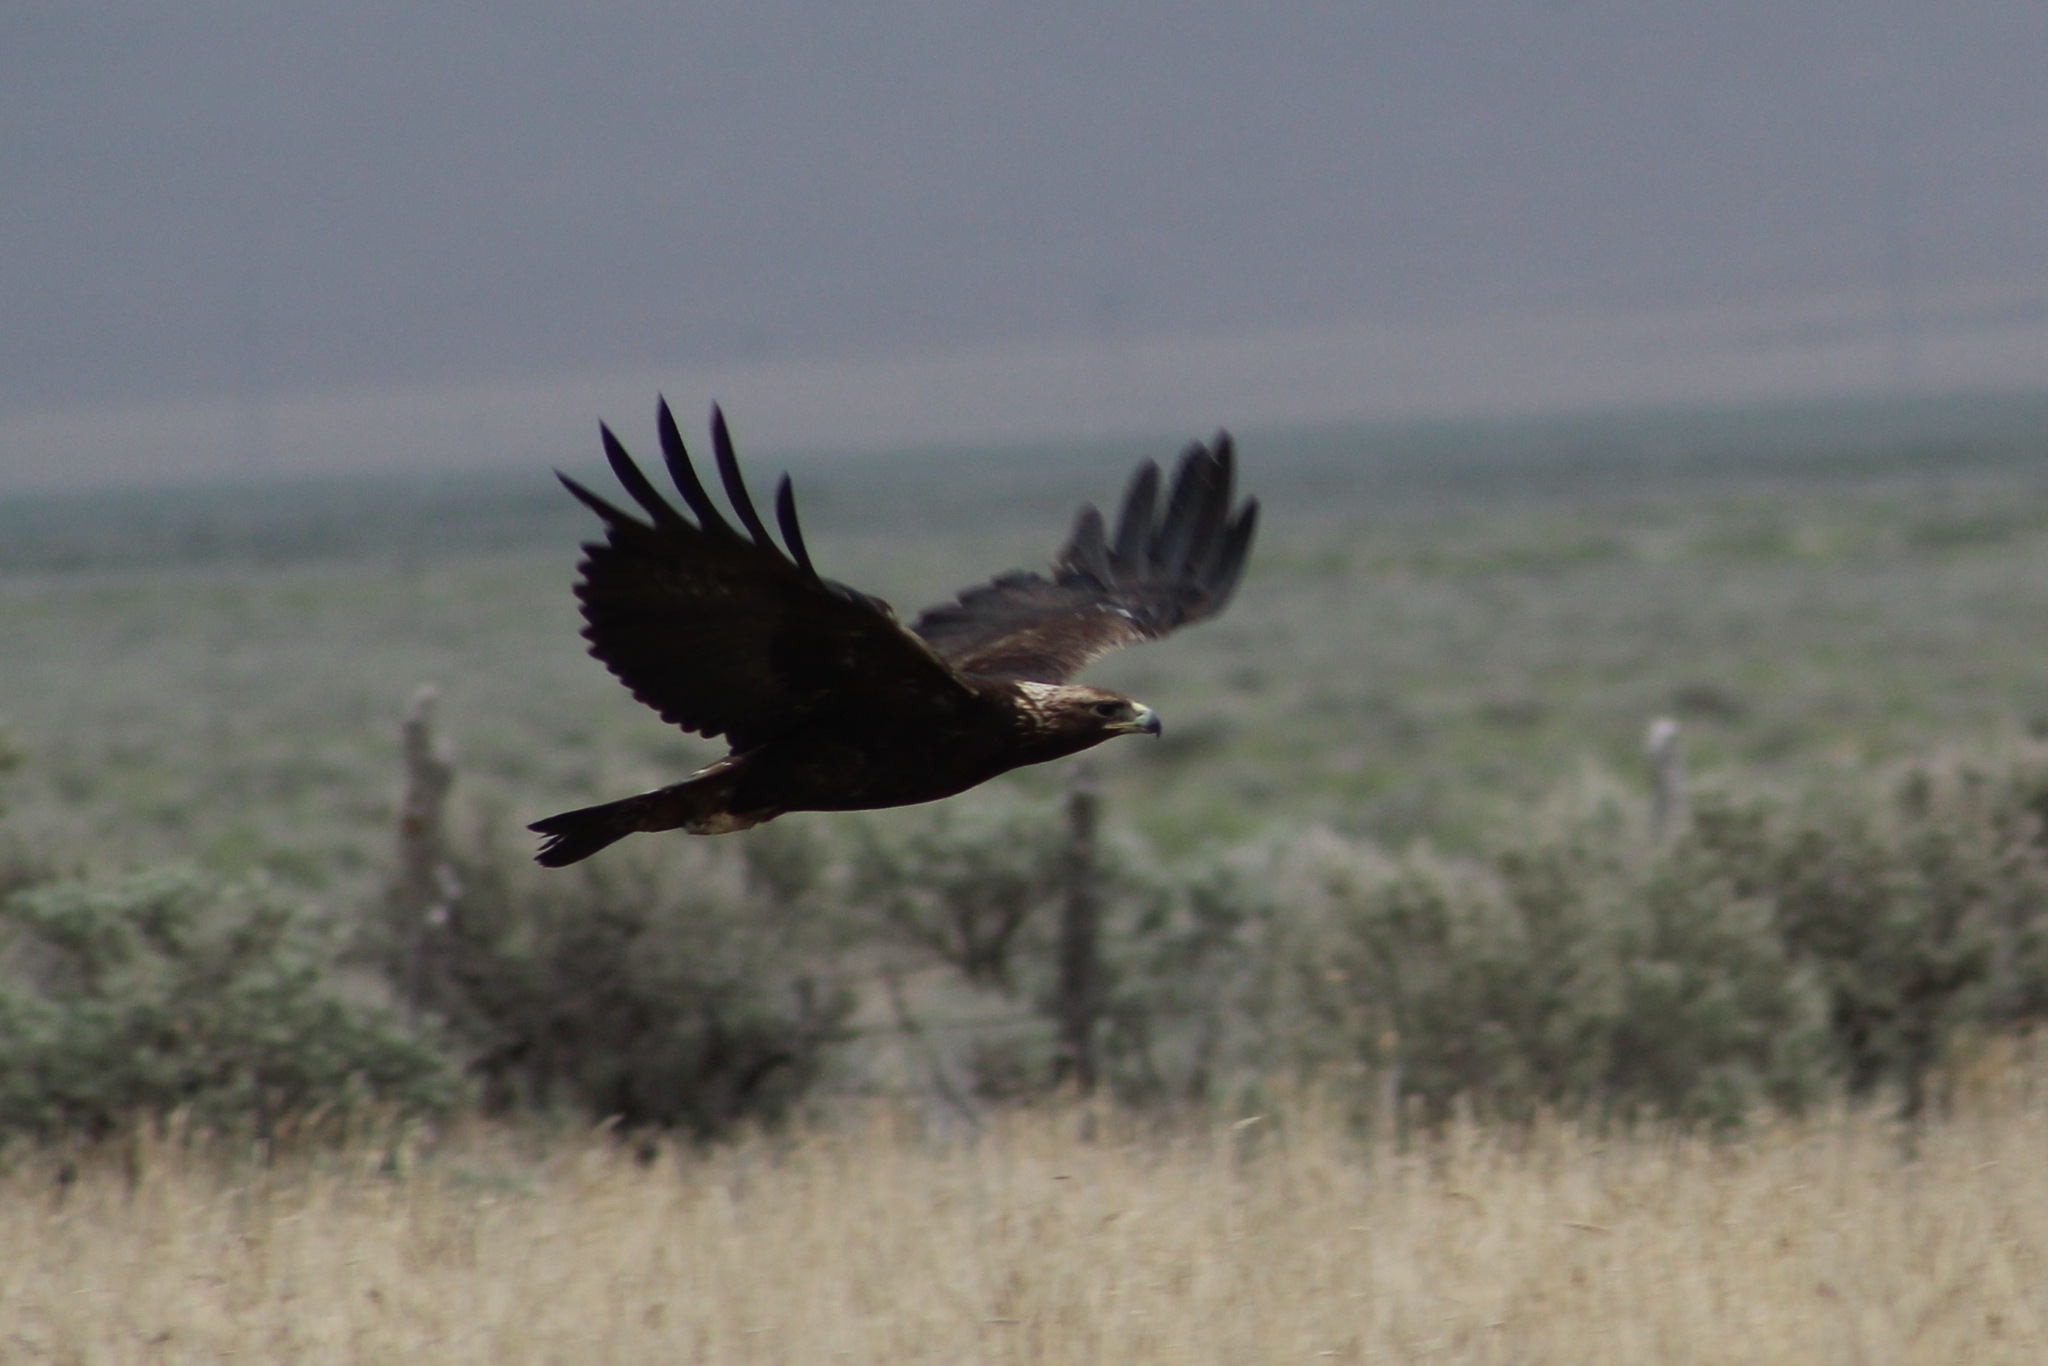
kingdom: Animalia
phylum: Chordata
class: Aves
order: Accipitriformes
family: Accipitridae
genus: Aquila
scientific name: Aquila chrysaetos
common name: Golden eagle
